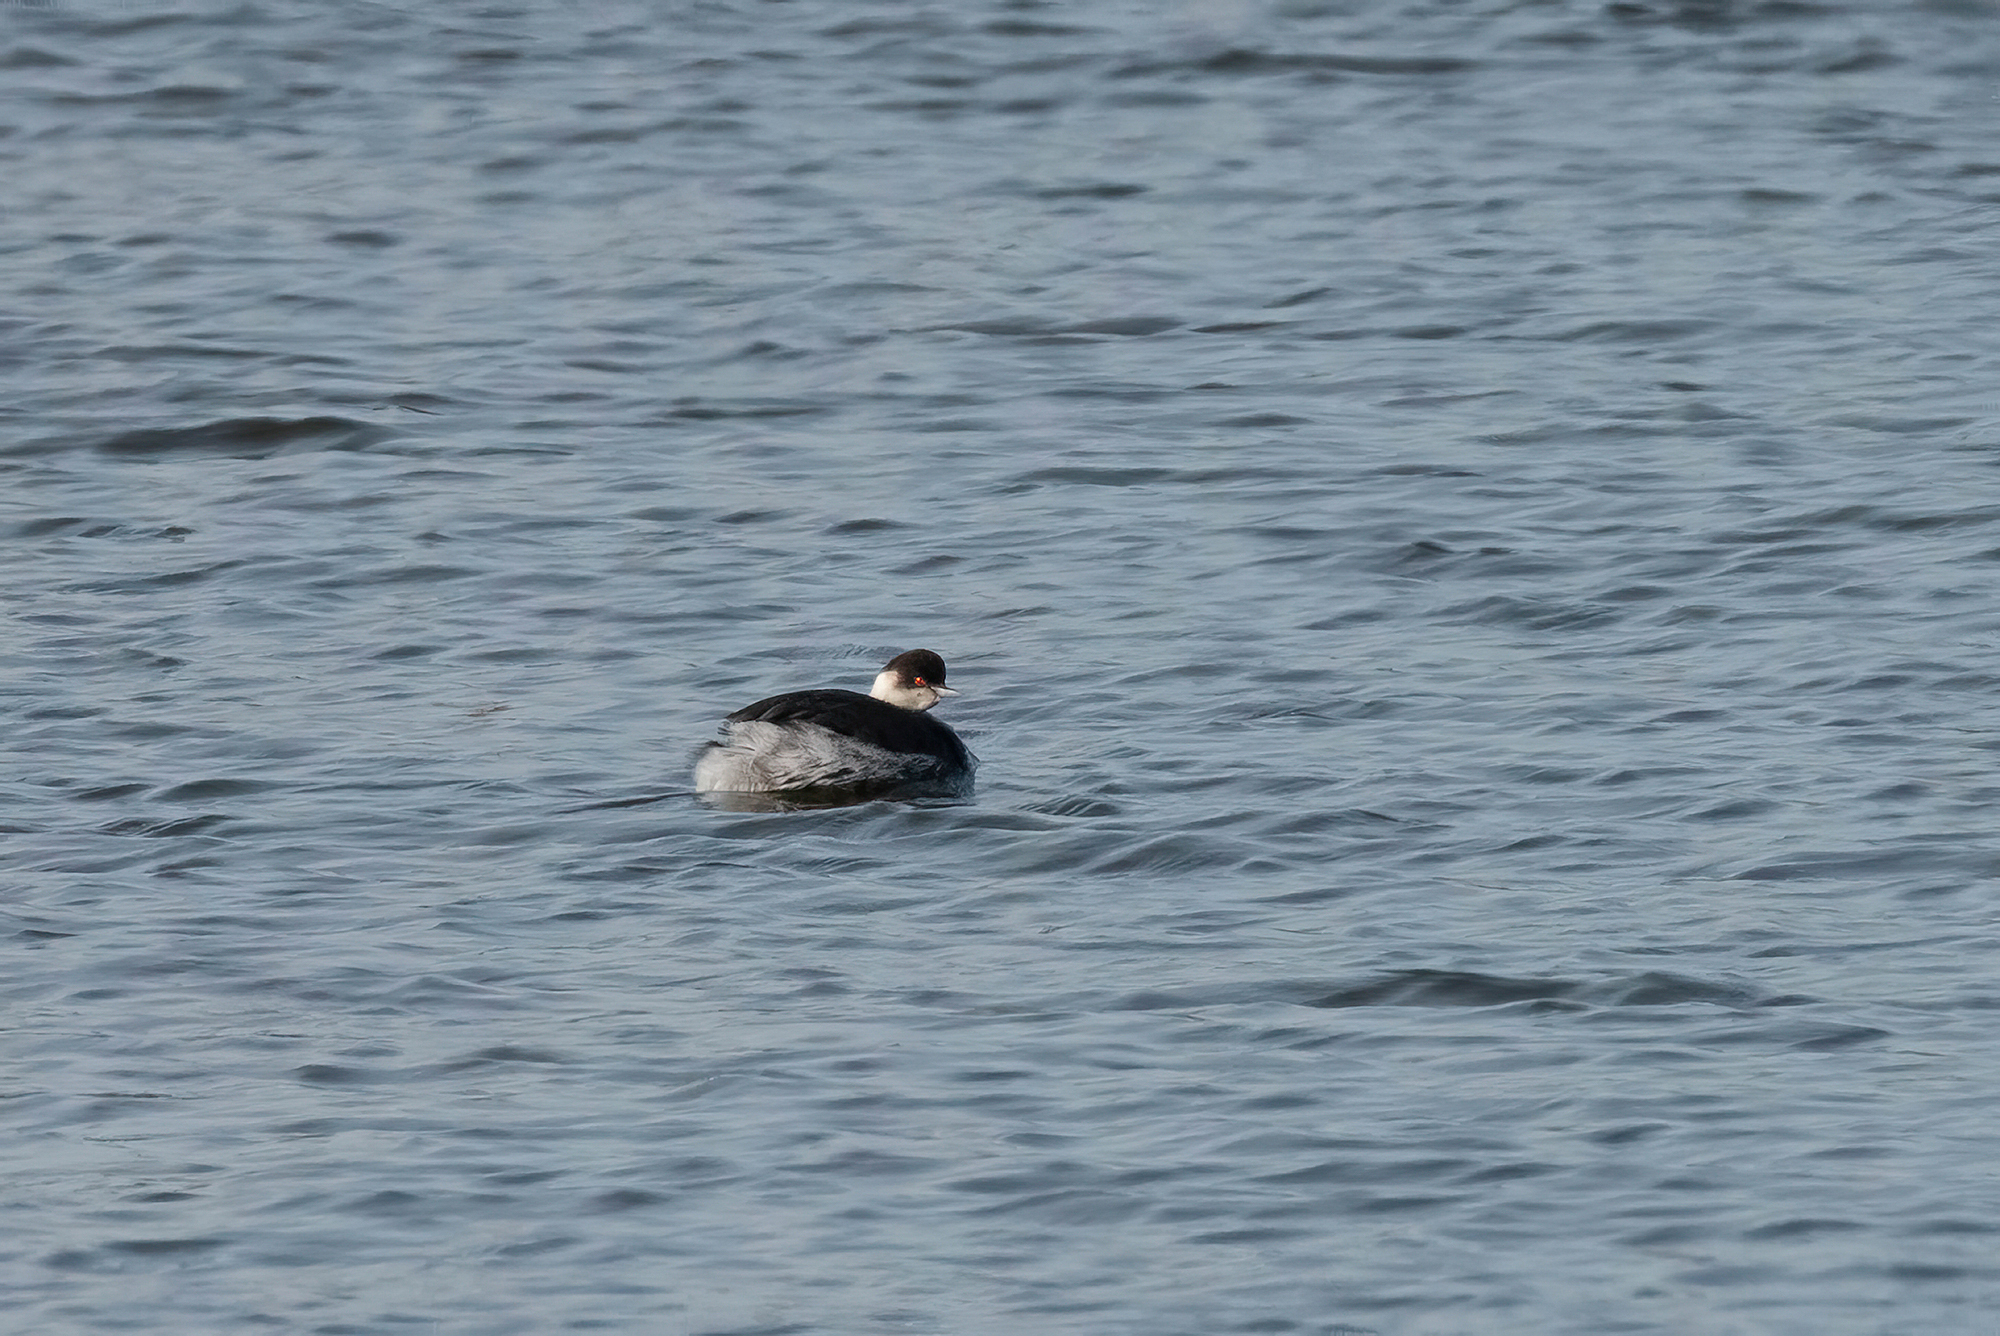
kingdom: Animalia
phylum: Chordata
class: Aves
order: Podicipediformes
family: Podicipedidae
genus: Podiceps
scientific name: Podiceps nigricollis
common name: Black-necked grebe
